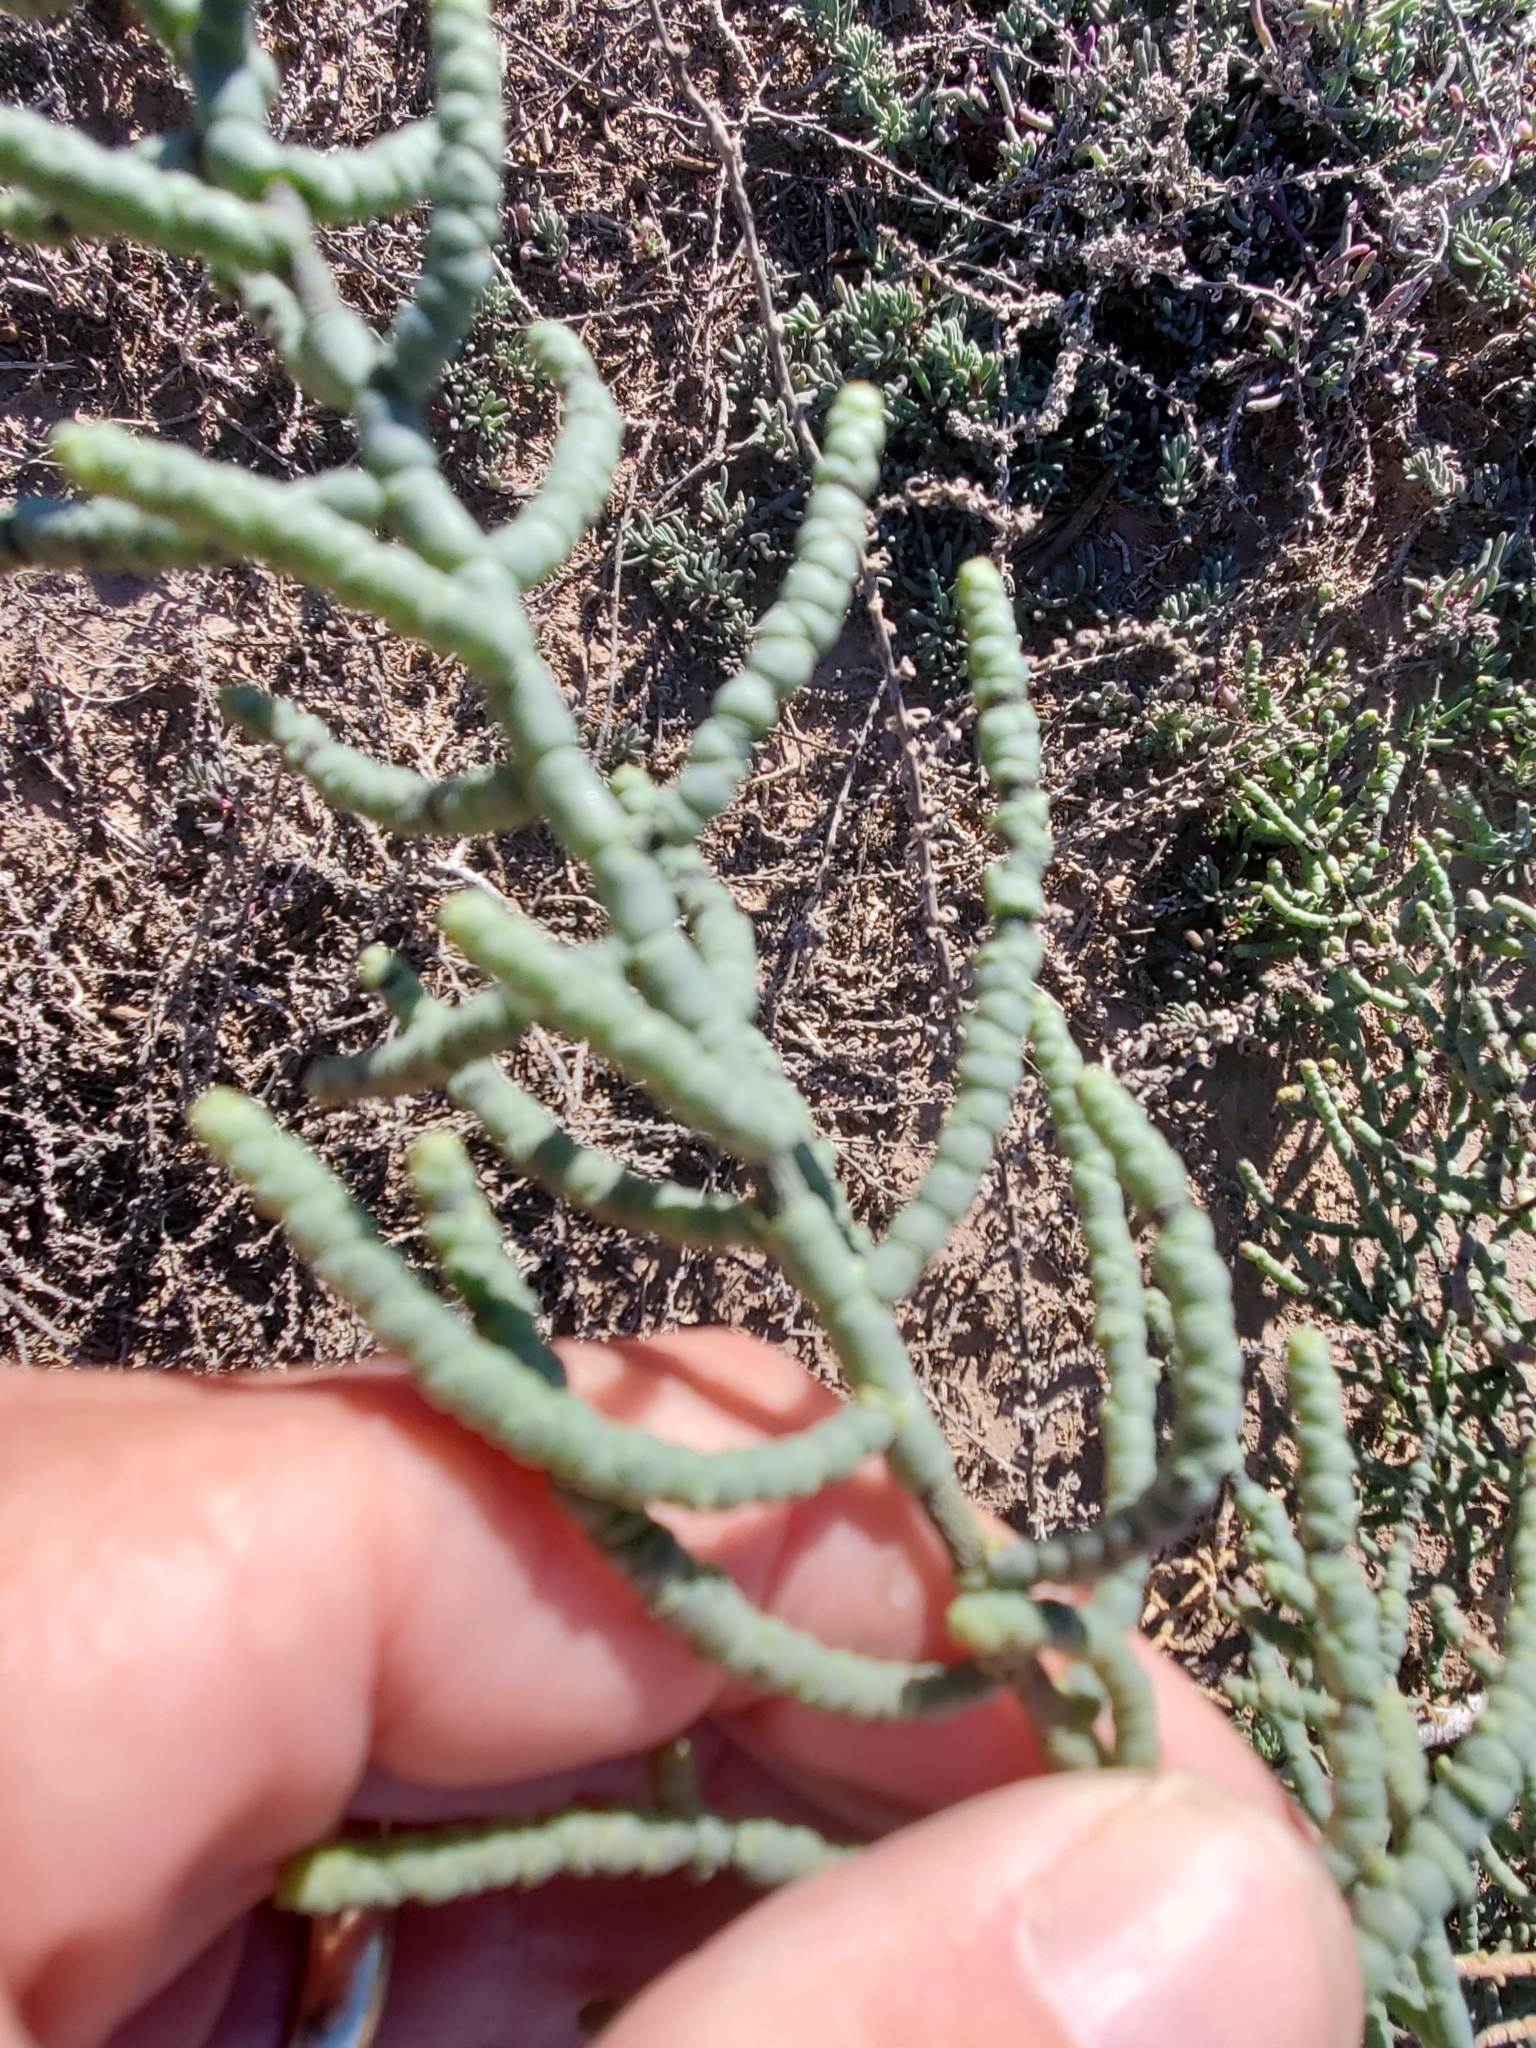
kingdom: Plantae
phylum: Tracheophyta
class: Magnoliopsida
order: Caryophyllales
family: Amaranthaceae
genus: Allenrolfea
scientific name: Allenrolfea occidentalis
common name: Iodine-bush
